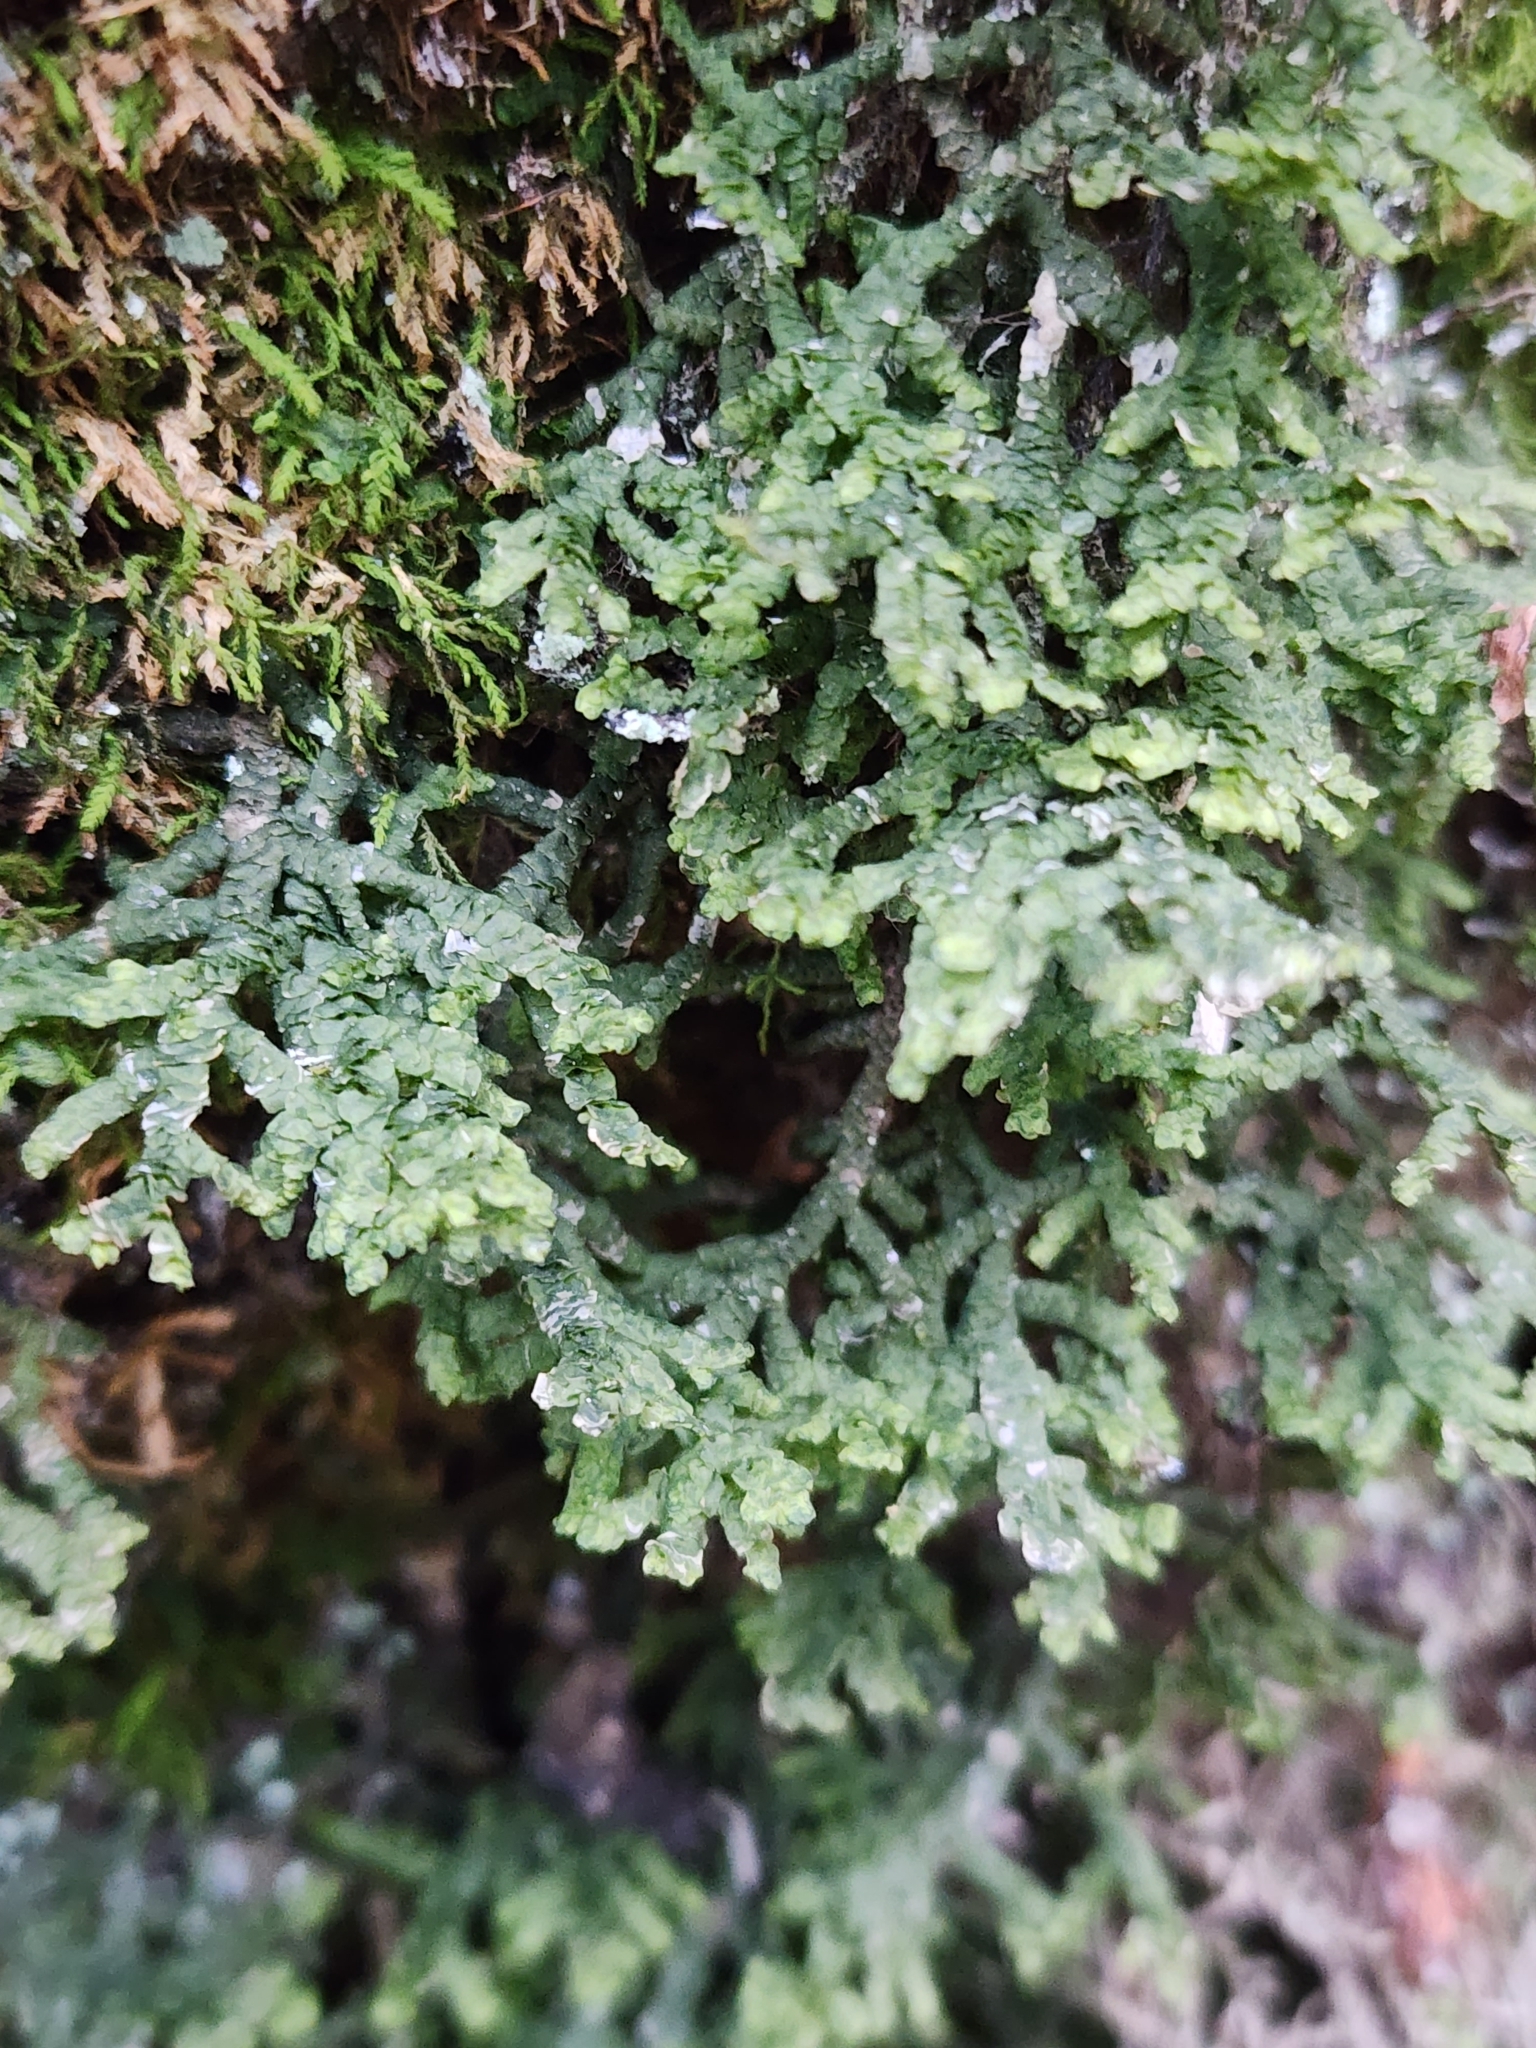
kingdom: Plantae
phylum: Marchantiophyta
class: Jungermanniopsida
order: Porellales
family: Porellaceae
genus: Porella
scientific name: Porella platyphylla
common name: Wall scalewort
